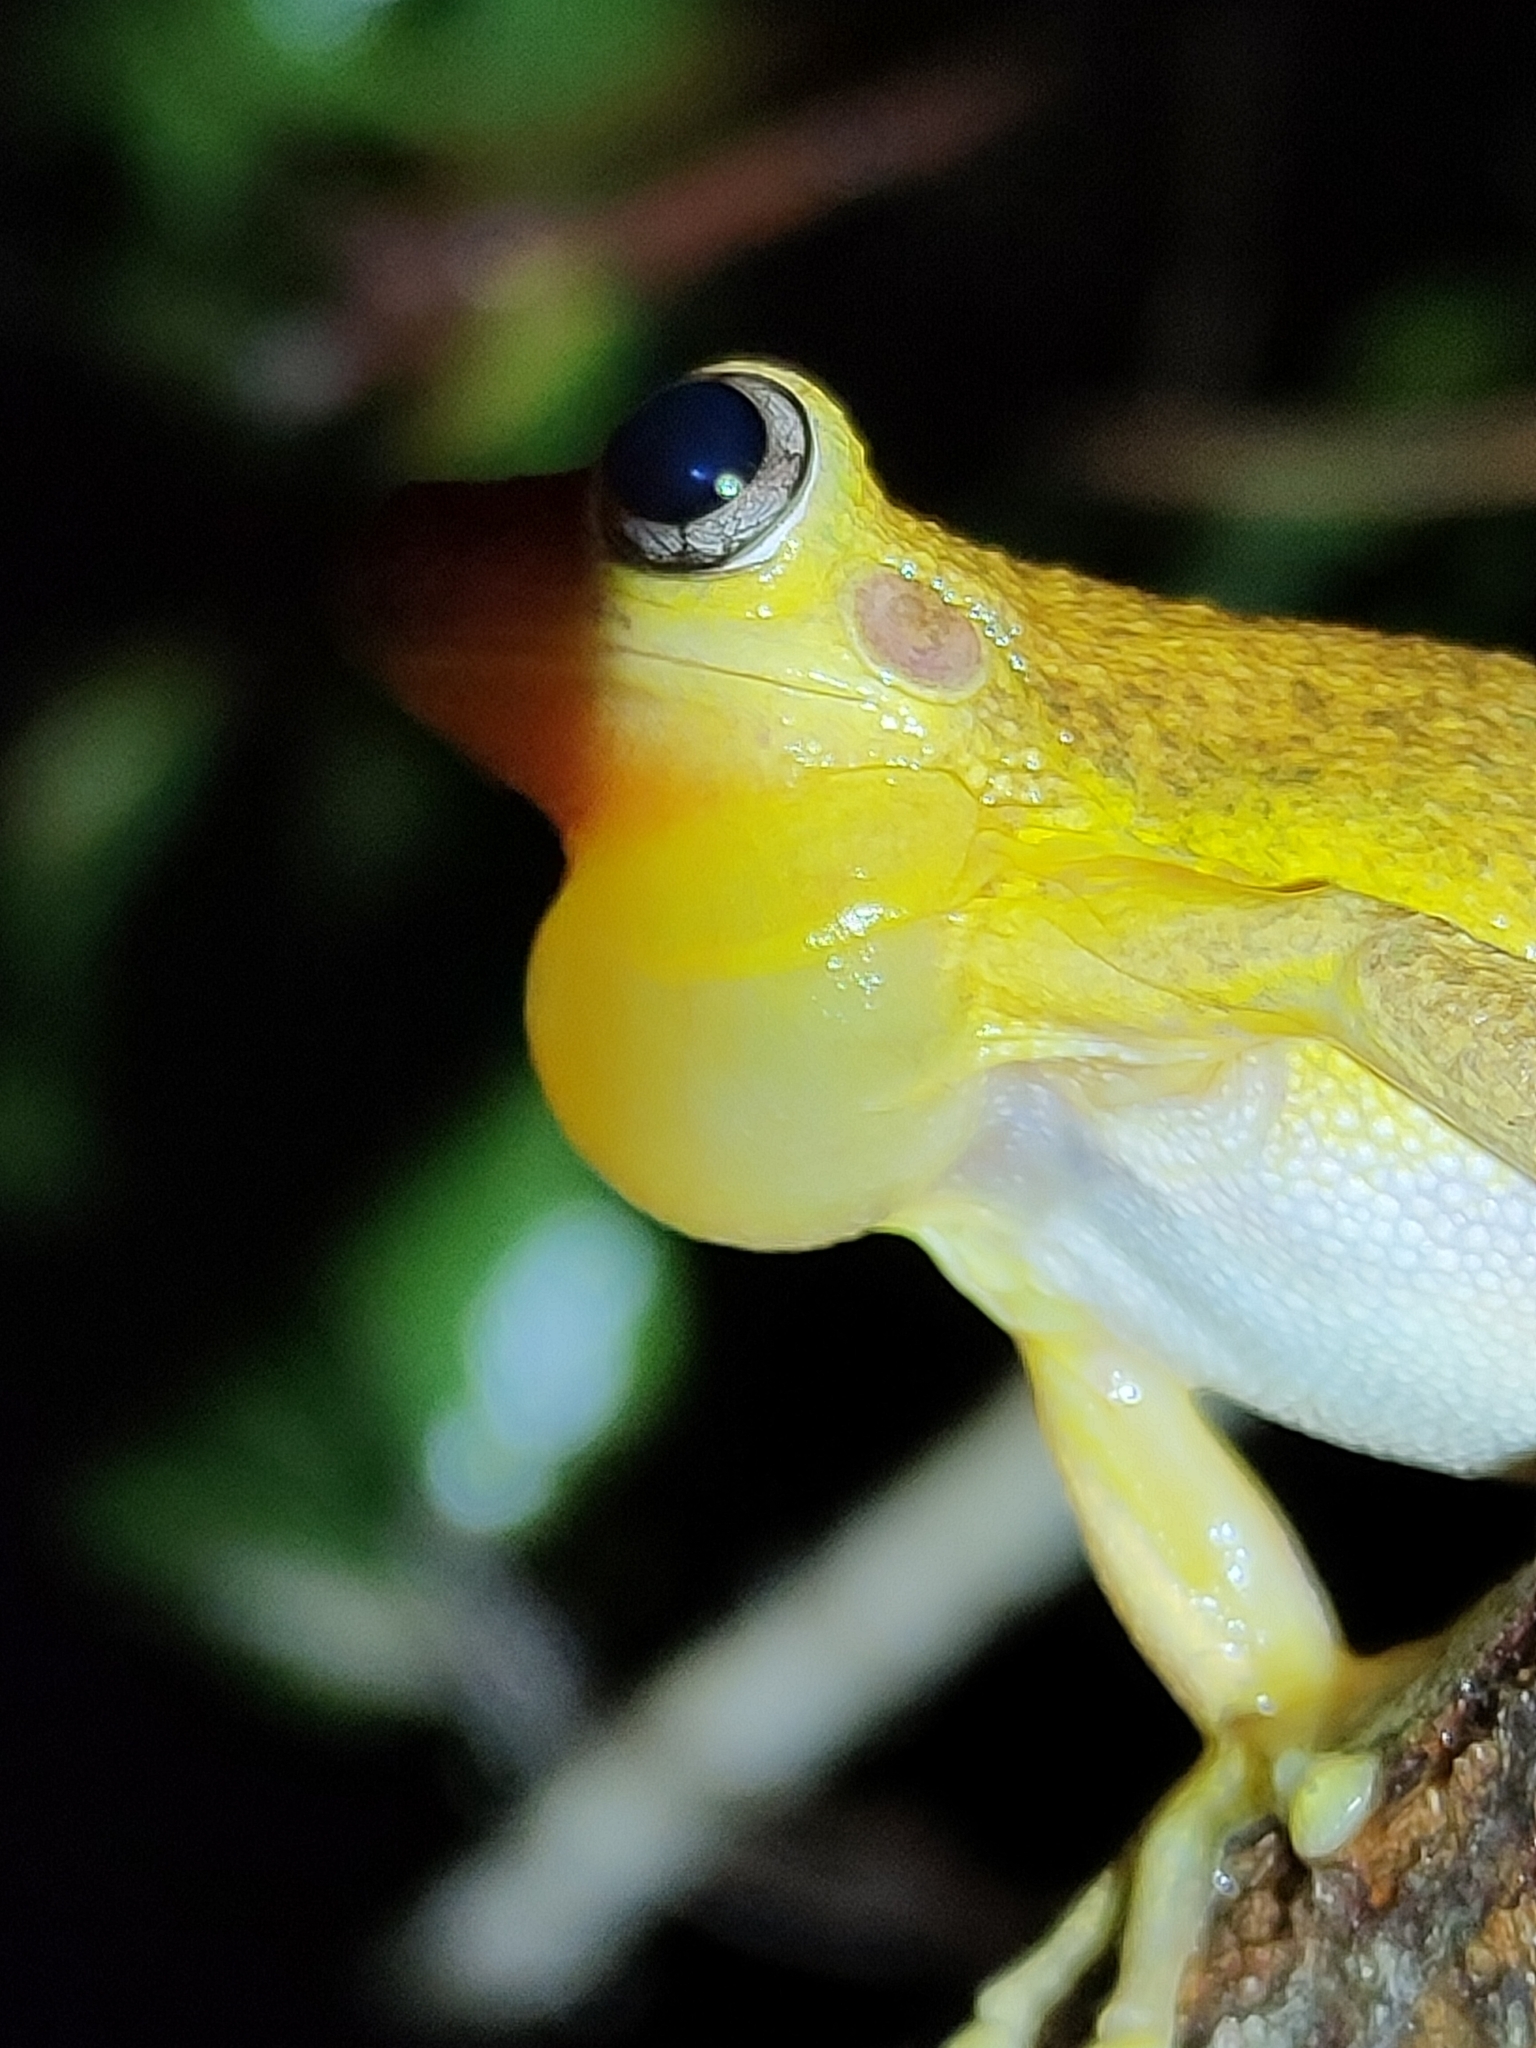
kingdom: Animalia
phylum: Chordata
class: Amphibia
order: Anura
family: Pelodryadidae
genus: Litoria
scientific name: Litoria tyleri
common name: Laughing tree frog
